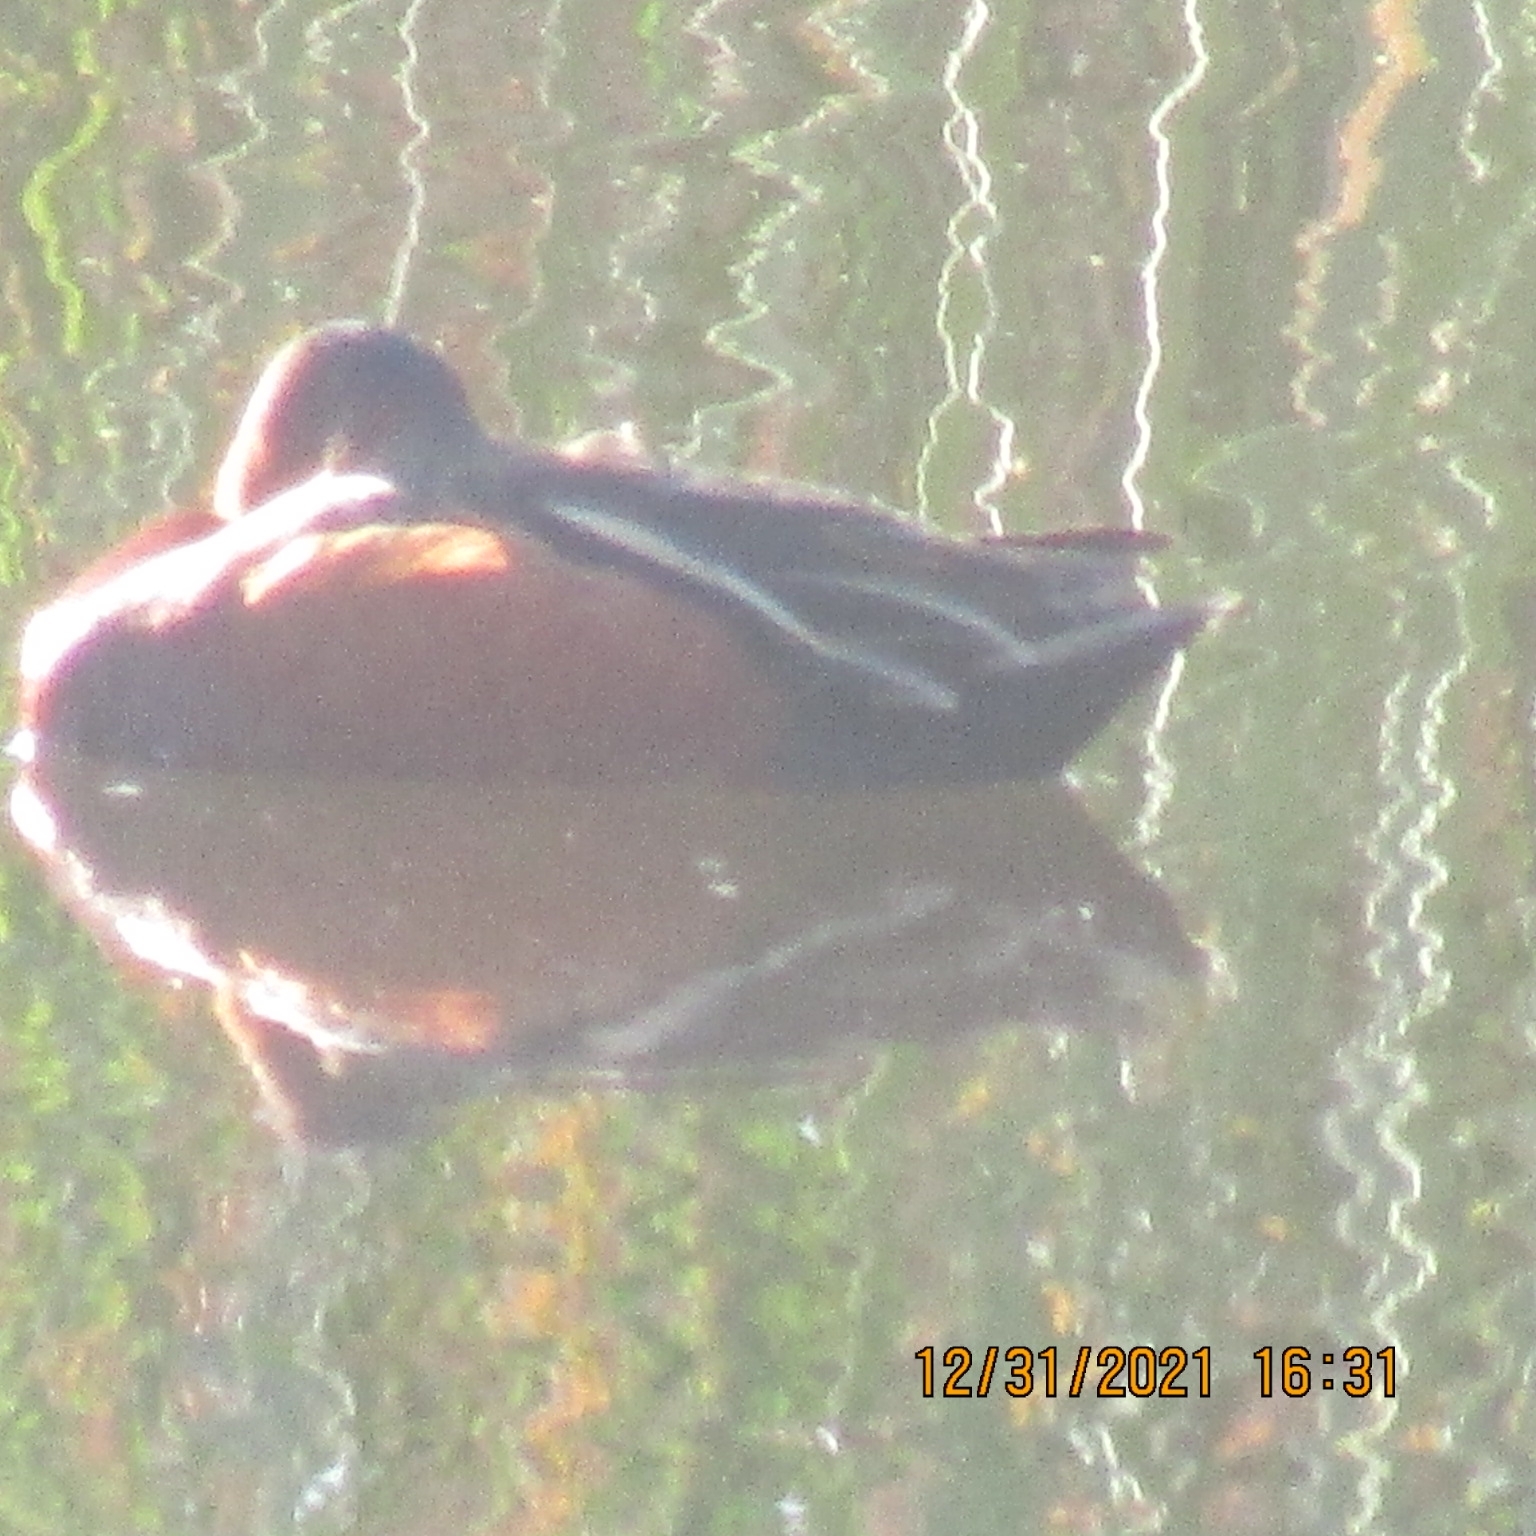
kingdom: Animalia
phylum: Chordata
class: Aves
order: Anseriformes
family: Anatidae
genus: Spatula
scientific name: Spatula cyanoptera
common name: Cinnamon teal
